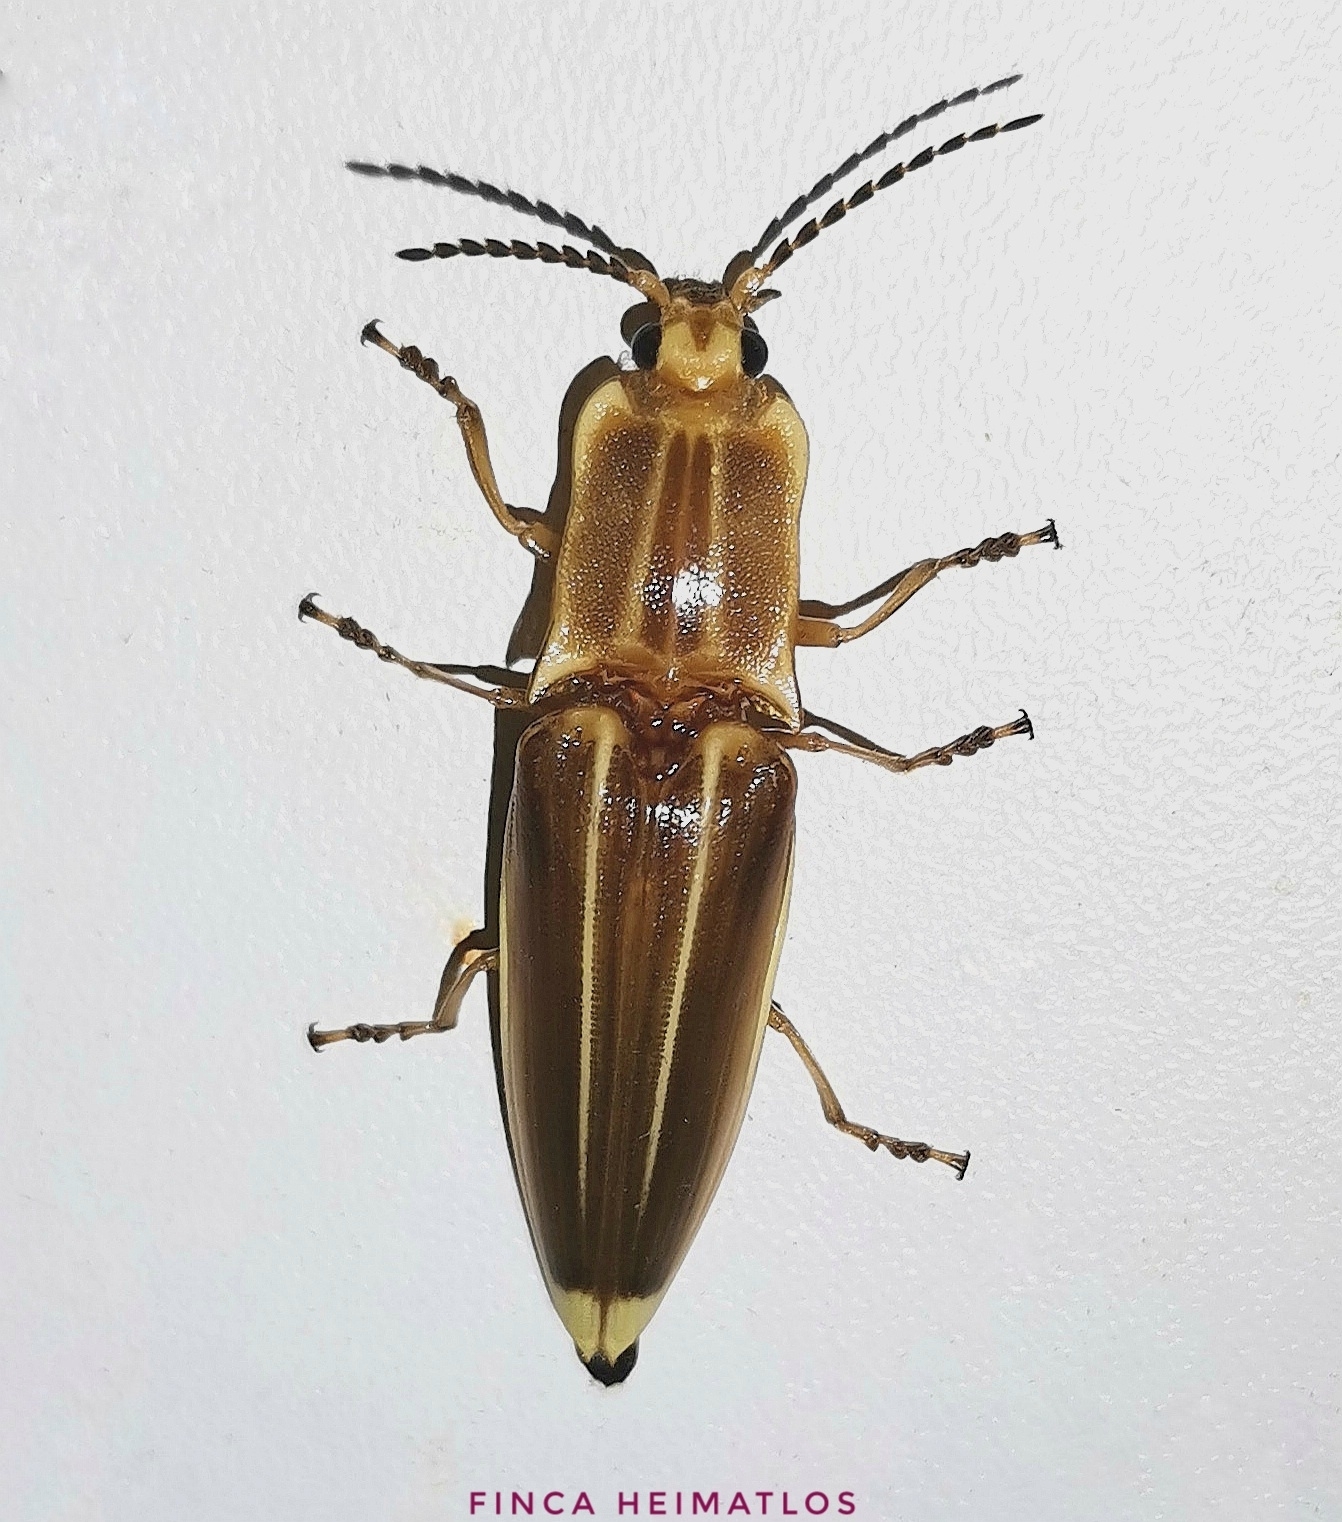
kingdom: Animalia
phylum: Arthropoda
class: Insecta
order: Coleoptera
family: Elateridae
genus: Semiotus
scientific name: Semiotus ligneus
